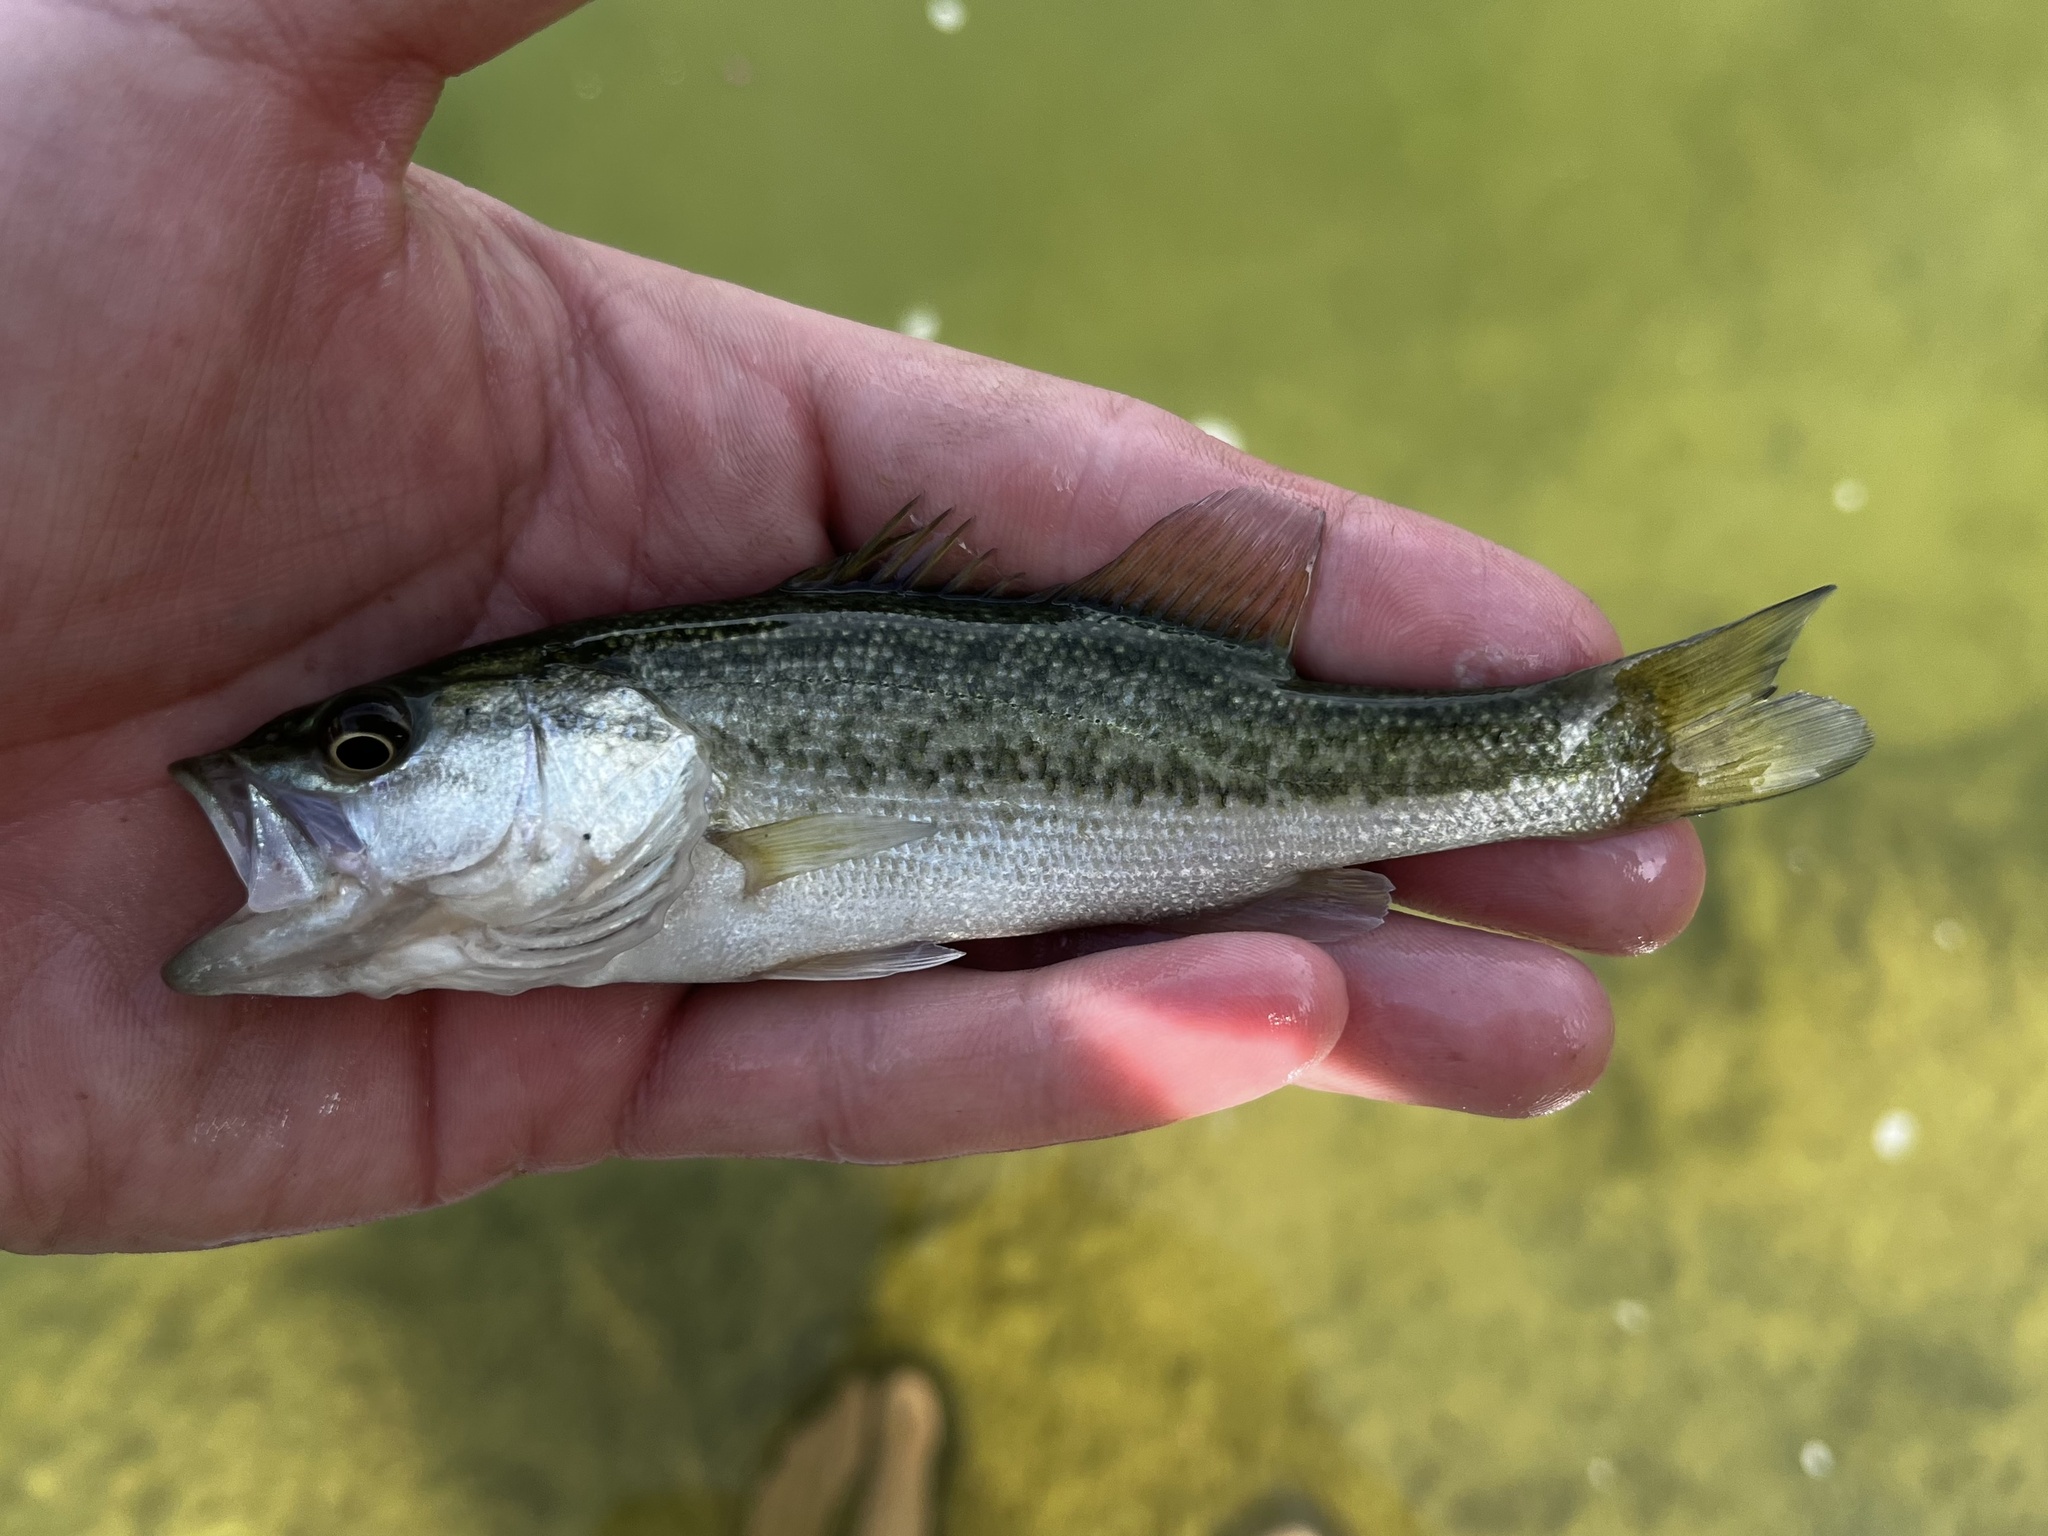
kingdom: Animalia
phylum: Chordata
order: Perciformes
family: Centrarchidae
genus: Micropterus
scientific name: Micropterus
